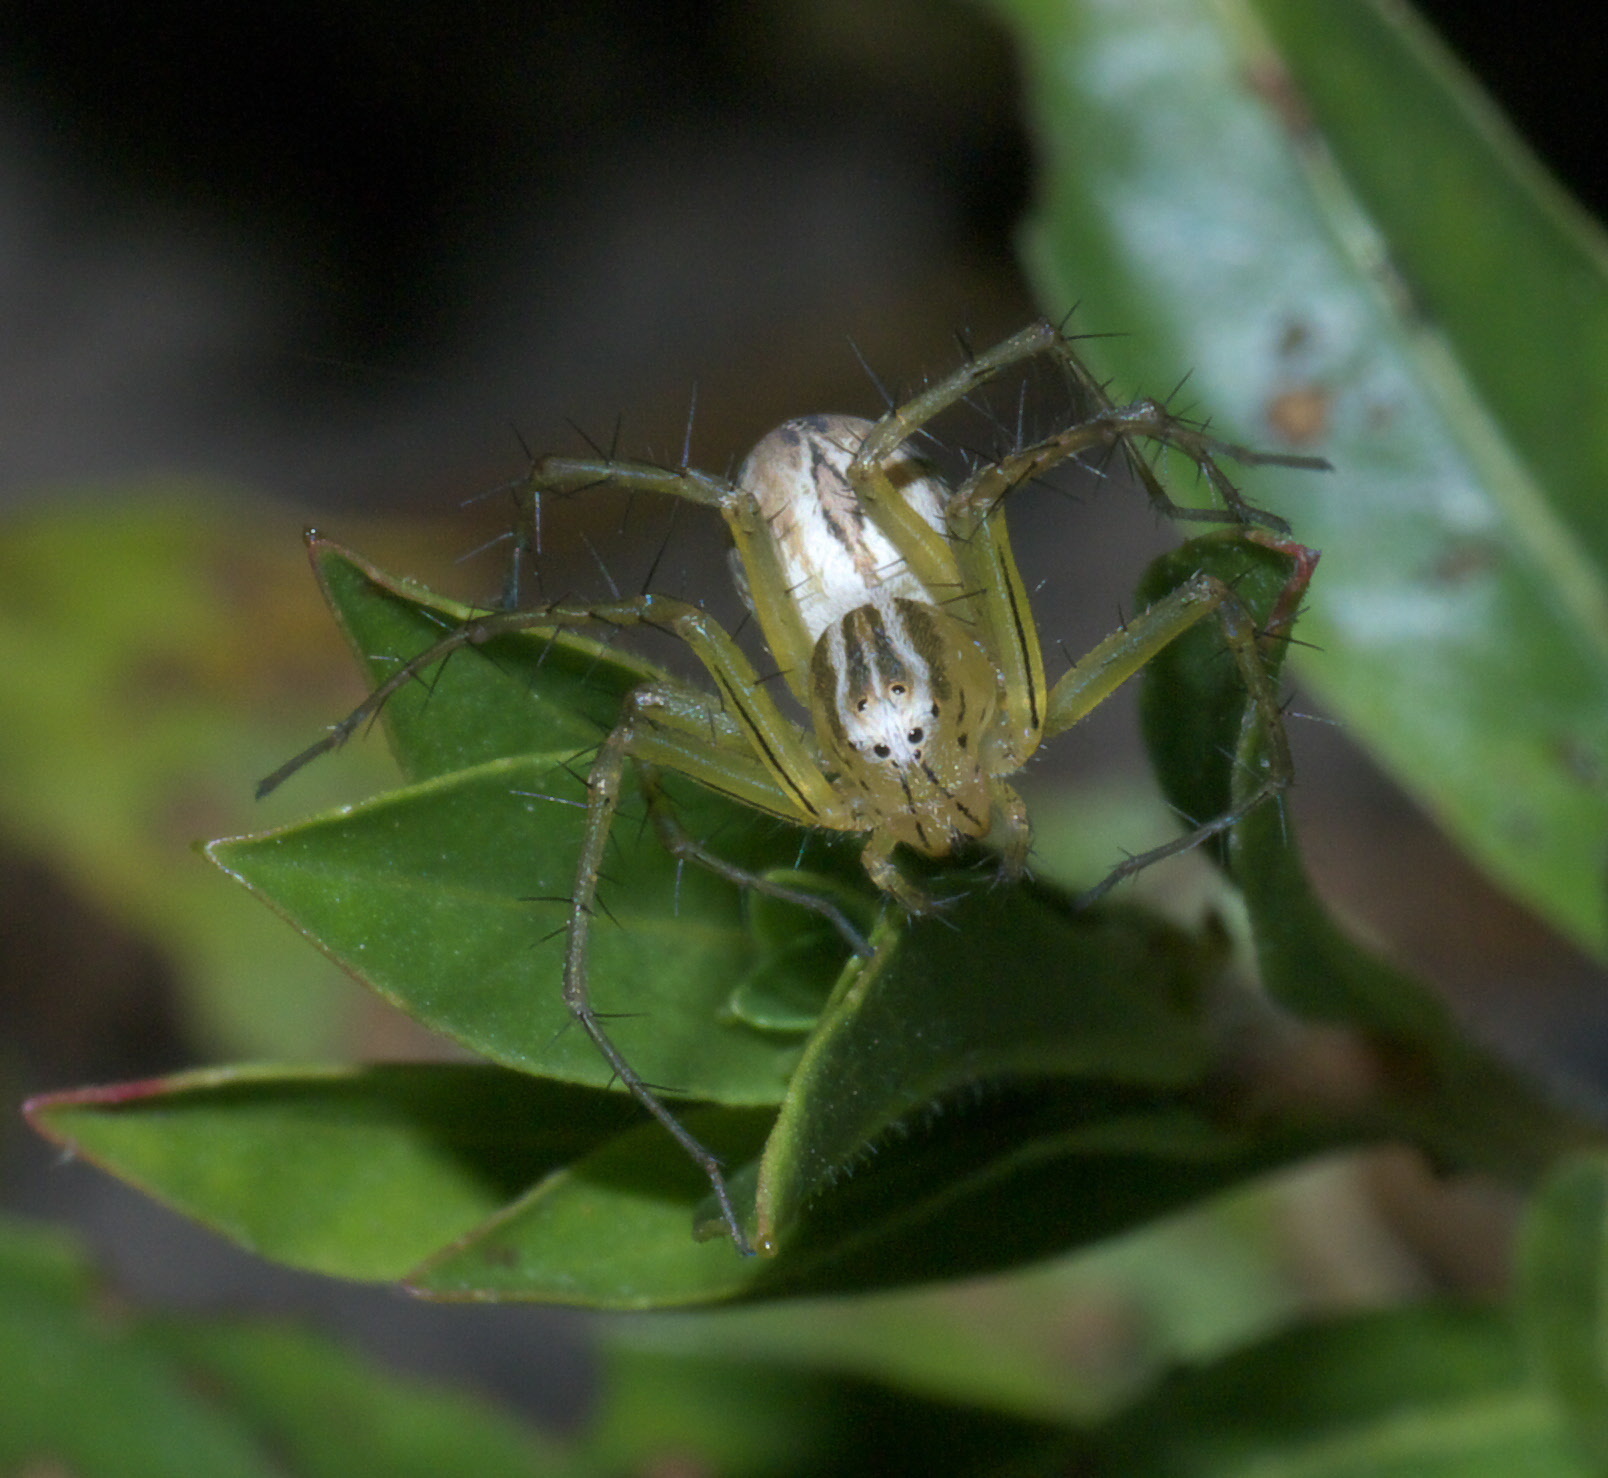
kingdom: Animalia
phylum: Arthropoda
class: Arachnida
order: Araneae
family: Oxyopidae
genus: Oxyopes
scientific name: Oxyopes salticus
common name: Lynx spiders
